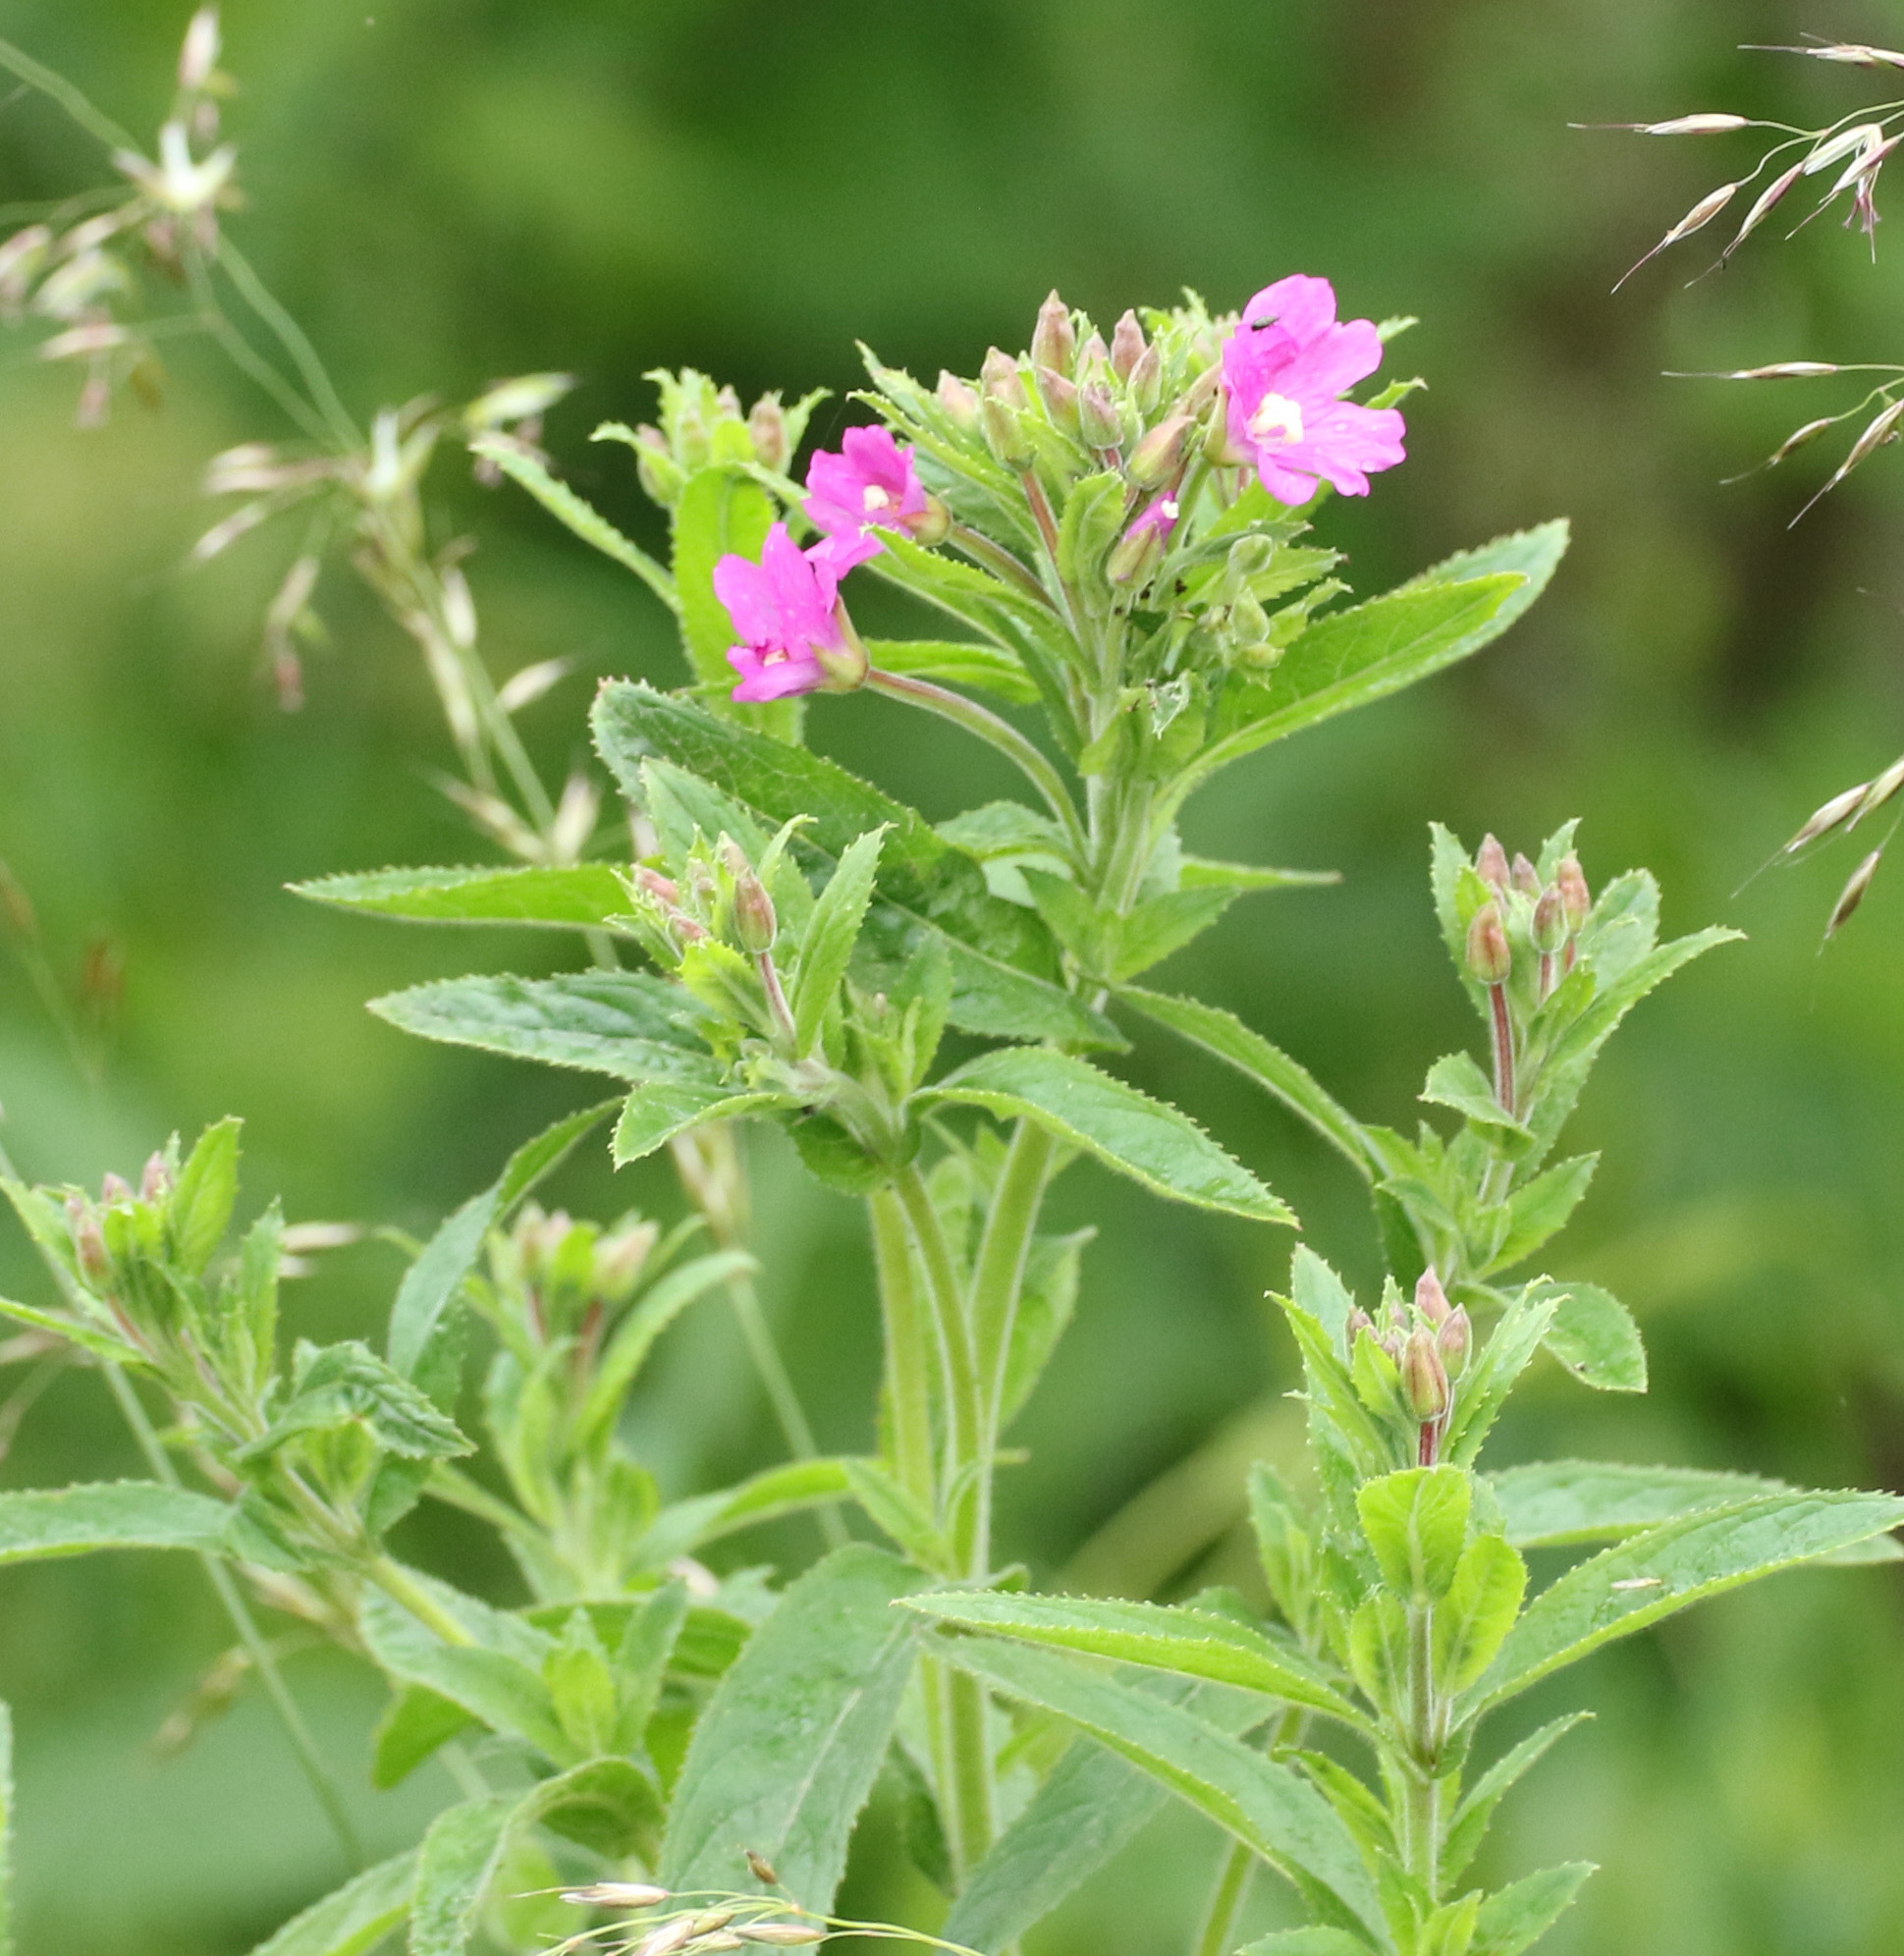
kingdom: Plantae
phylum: Tracheophyta
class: Magnoliopsida
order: Myrtales
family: Onagraceae
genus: Epilobium
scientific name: Epilobium hirsutum
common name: Great willowherb
